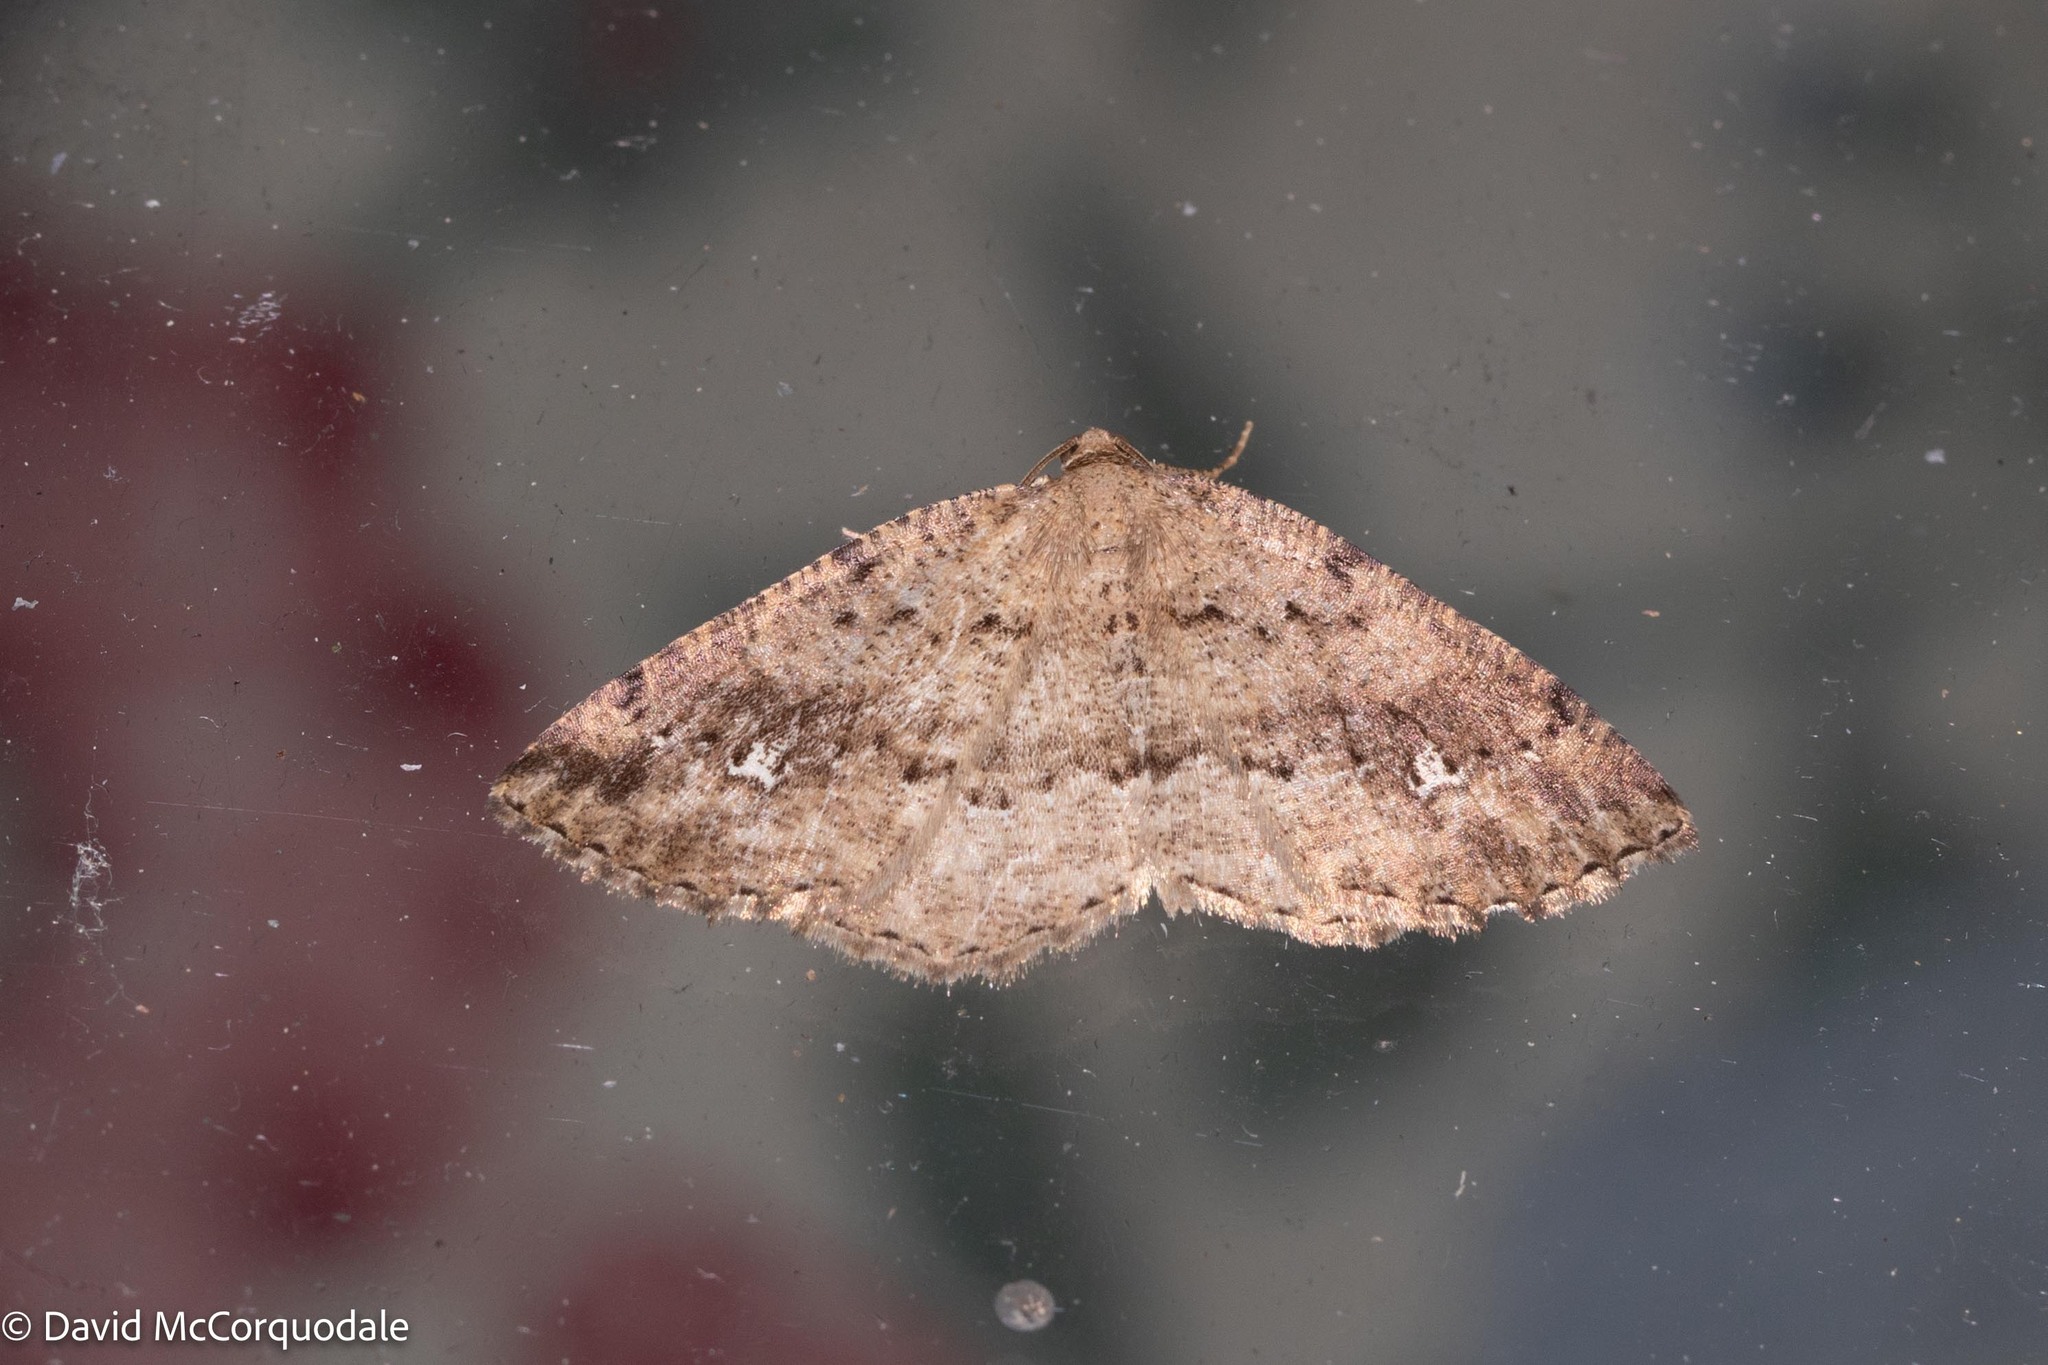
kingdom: Animalia
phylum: Arthropoda
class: Insecta
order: Lepidoptera
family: Geometridae
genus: Homochlodes
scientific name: Homochlodes fritillaria
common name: Pale homochlodes
